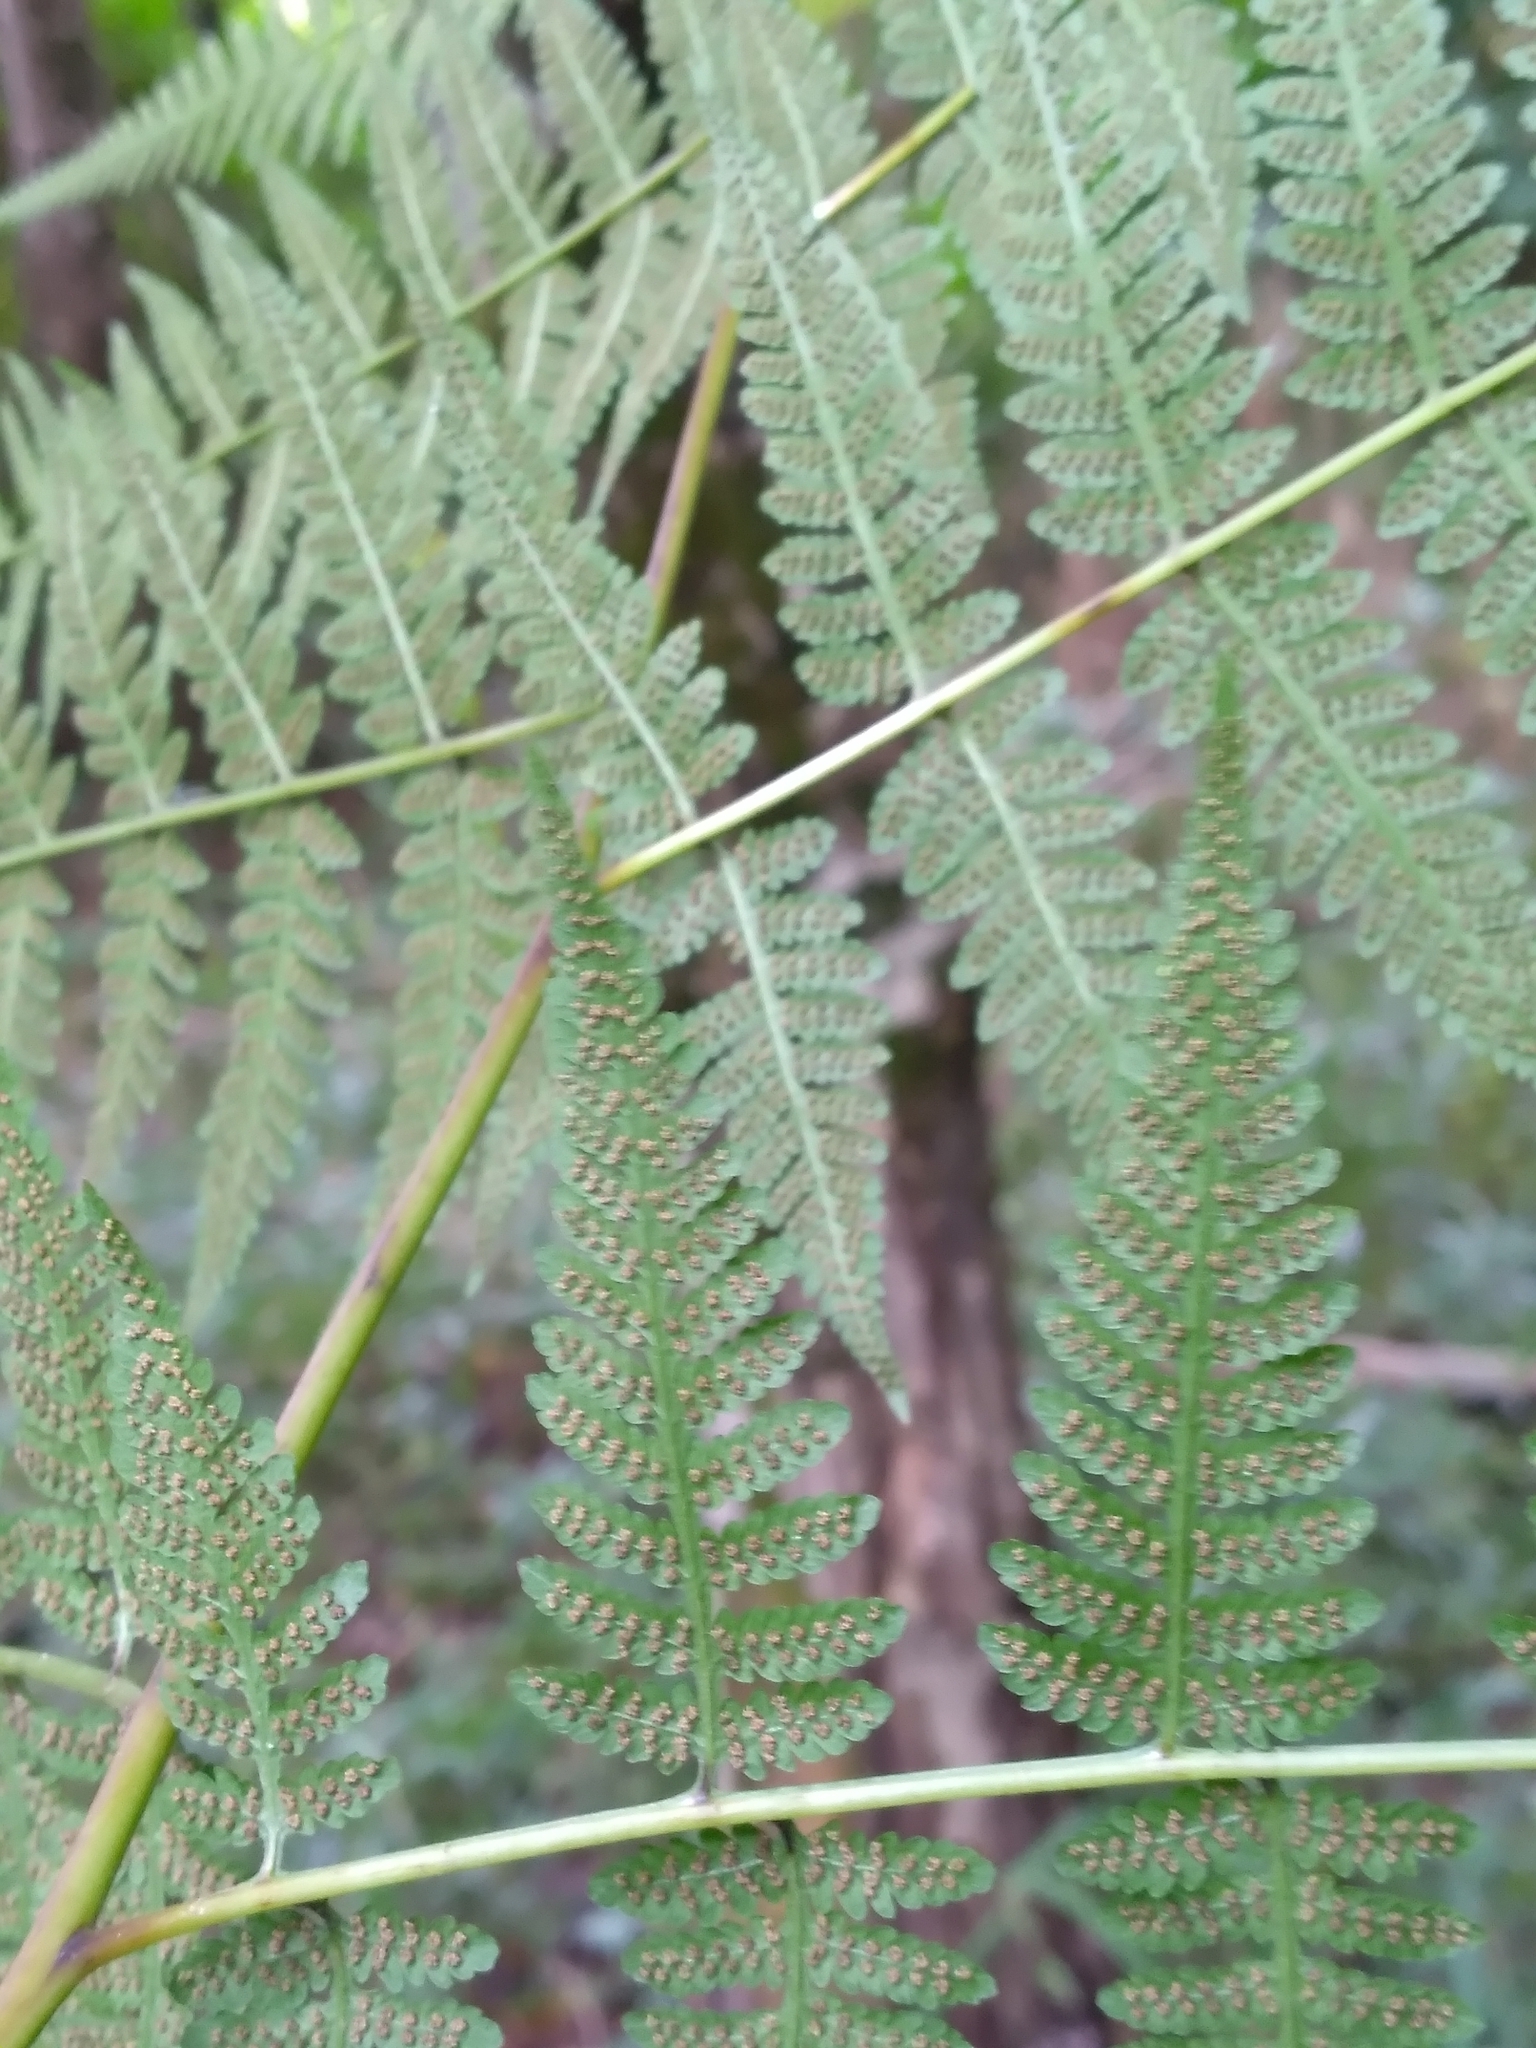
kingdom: Plantae
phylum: Tracheophyta
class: Polypodiopsida
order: Polypodiales
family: Thelypteridaceae
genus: Macrothelypteris
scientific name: Macrothelypteris torresiana
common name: Swordfern
